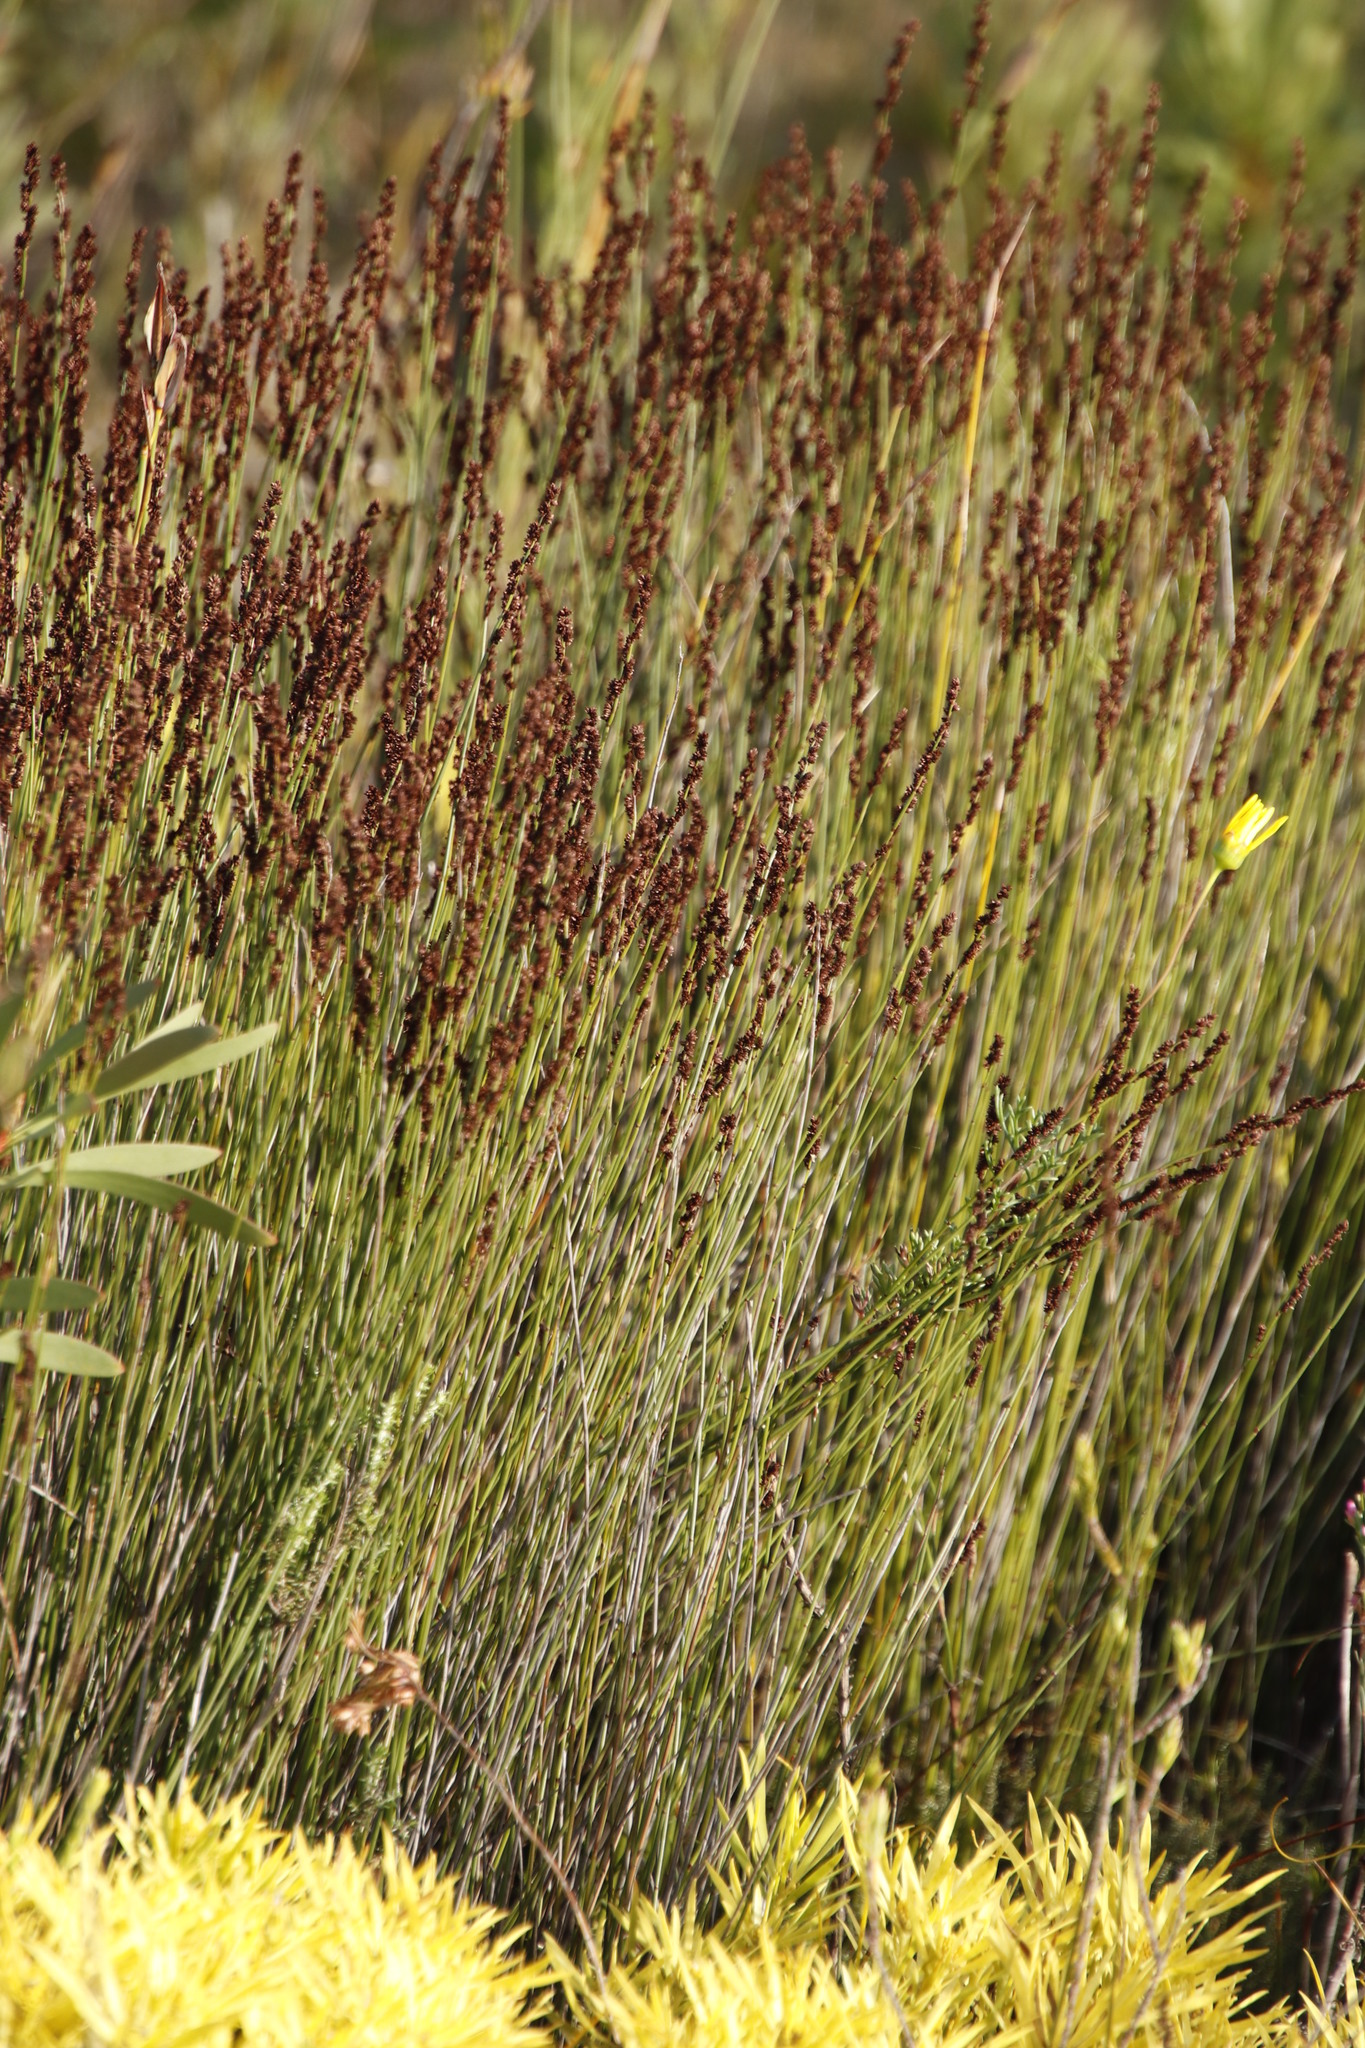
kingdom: Plantae
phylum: Tracheophyta
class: Liliopsida
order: Poales
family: Restionaceae
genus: Elegia
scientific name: Elegia nuda
